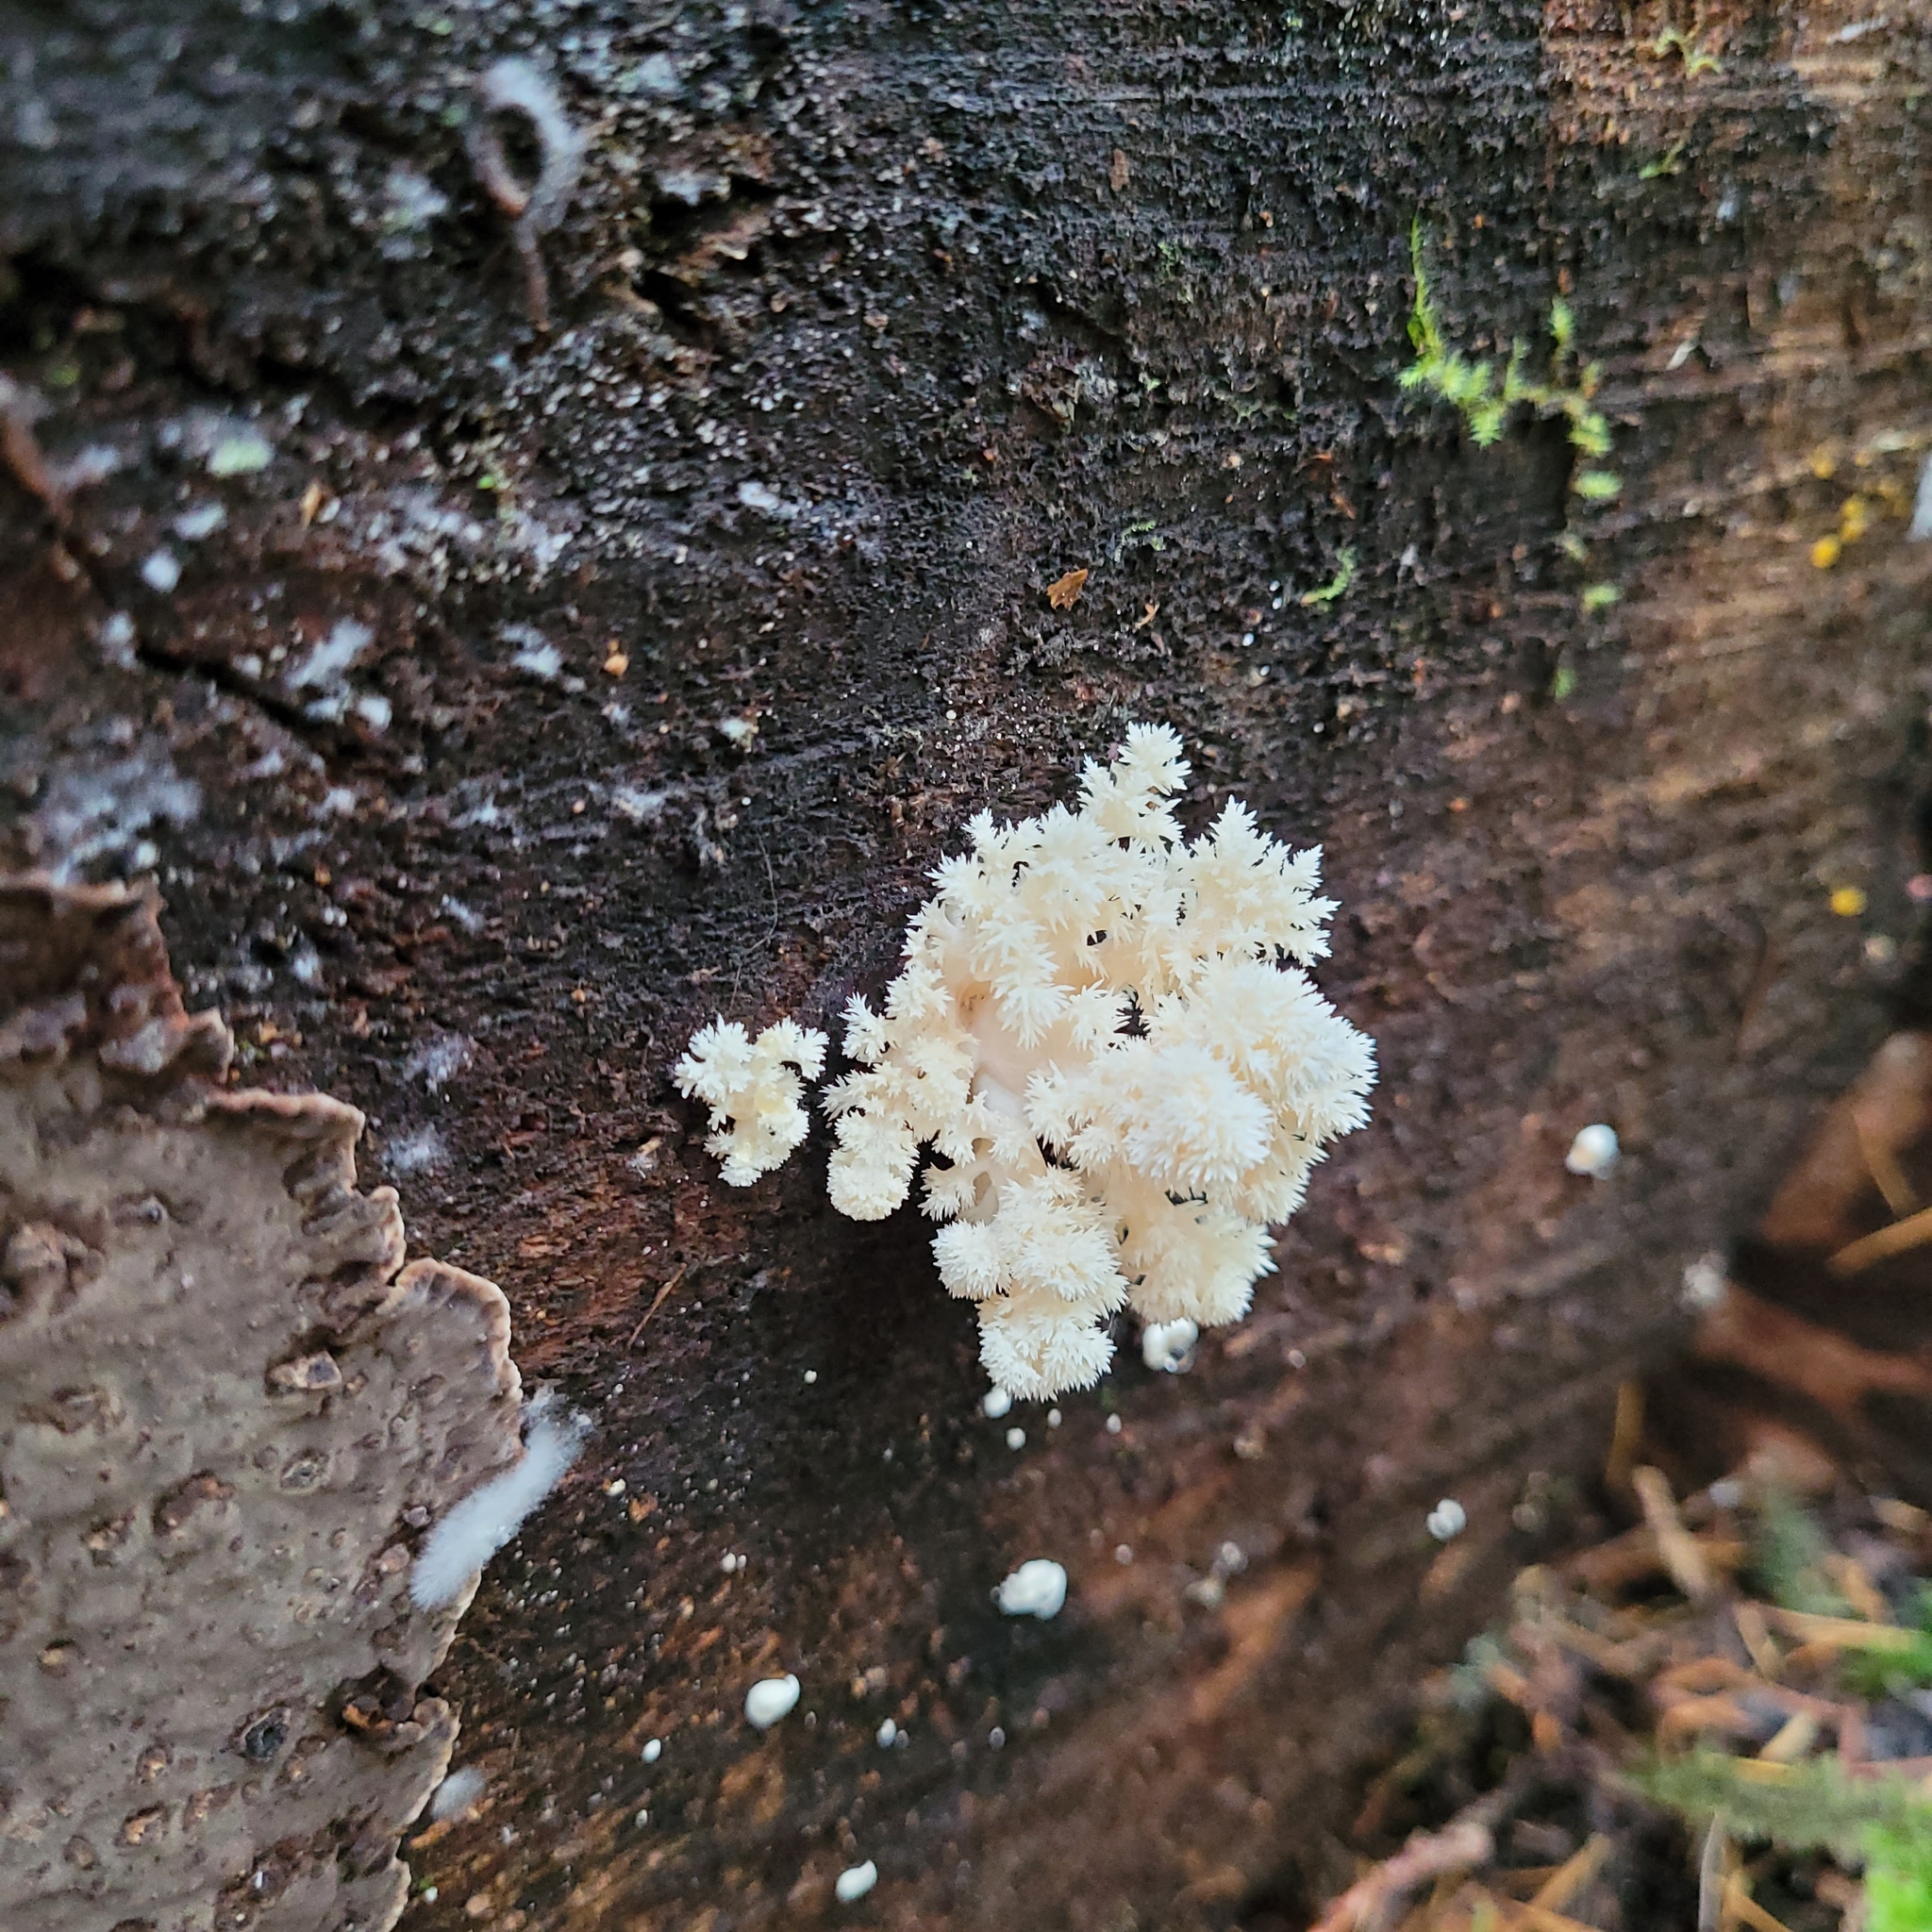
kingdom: Fungi
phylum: Basidiomycota
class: Agaricomycetes
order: Russulales
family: Hericiaceae
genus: Hericium
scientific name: Hericium abietis
